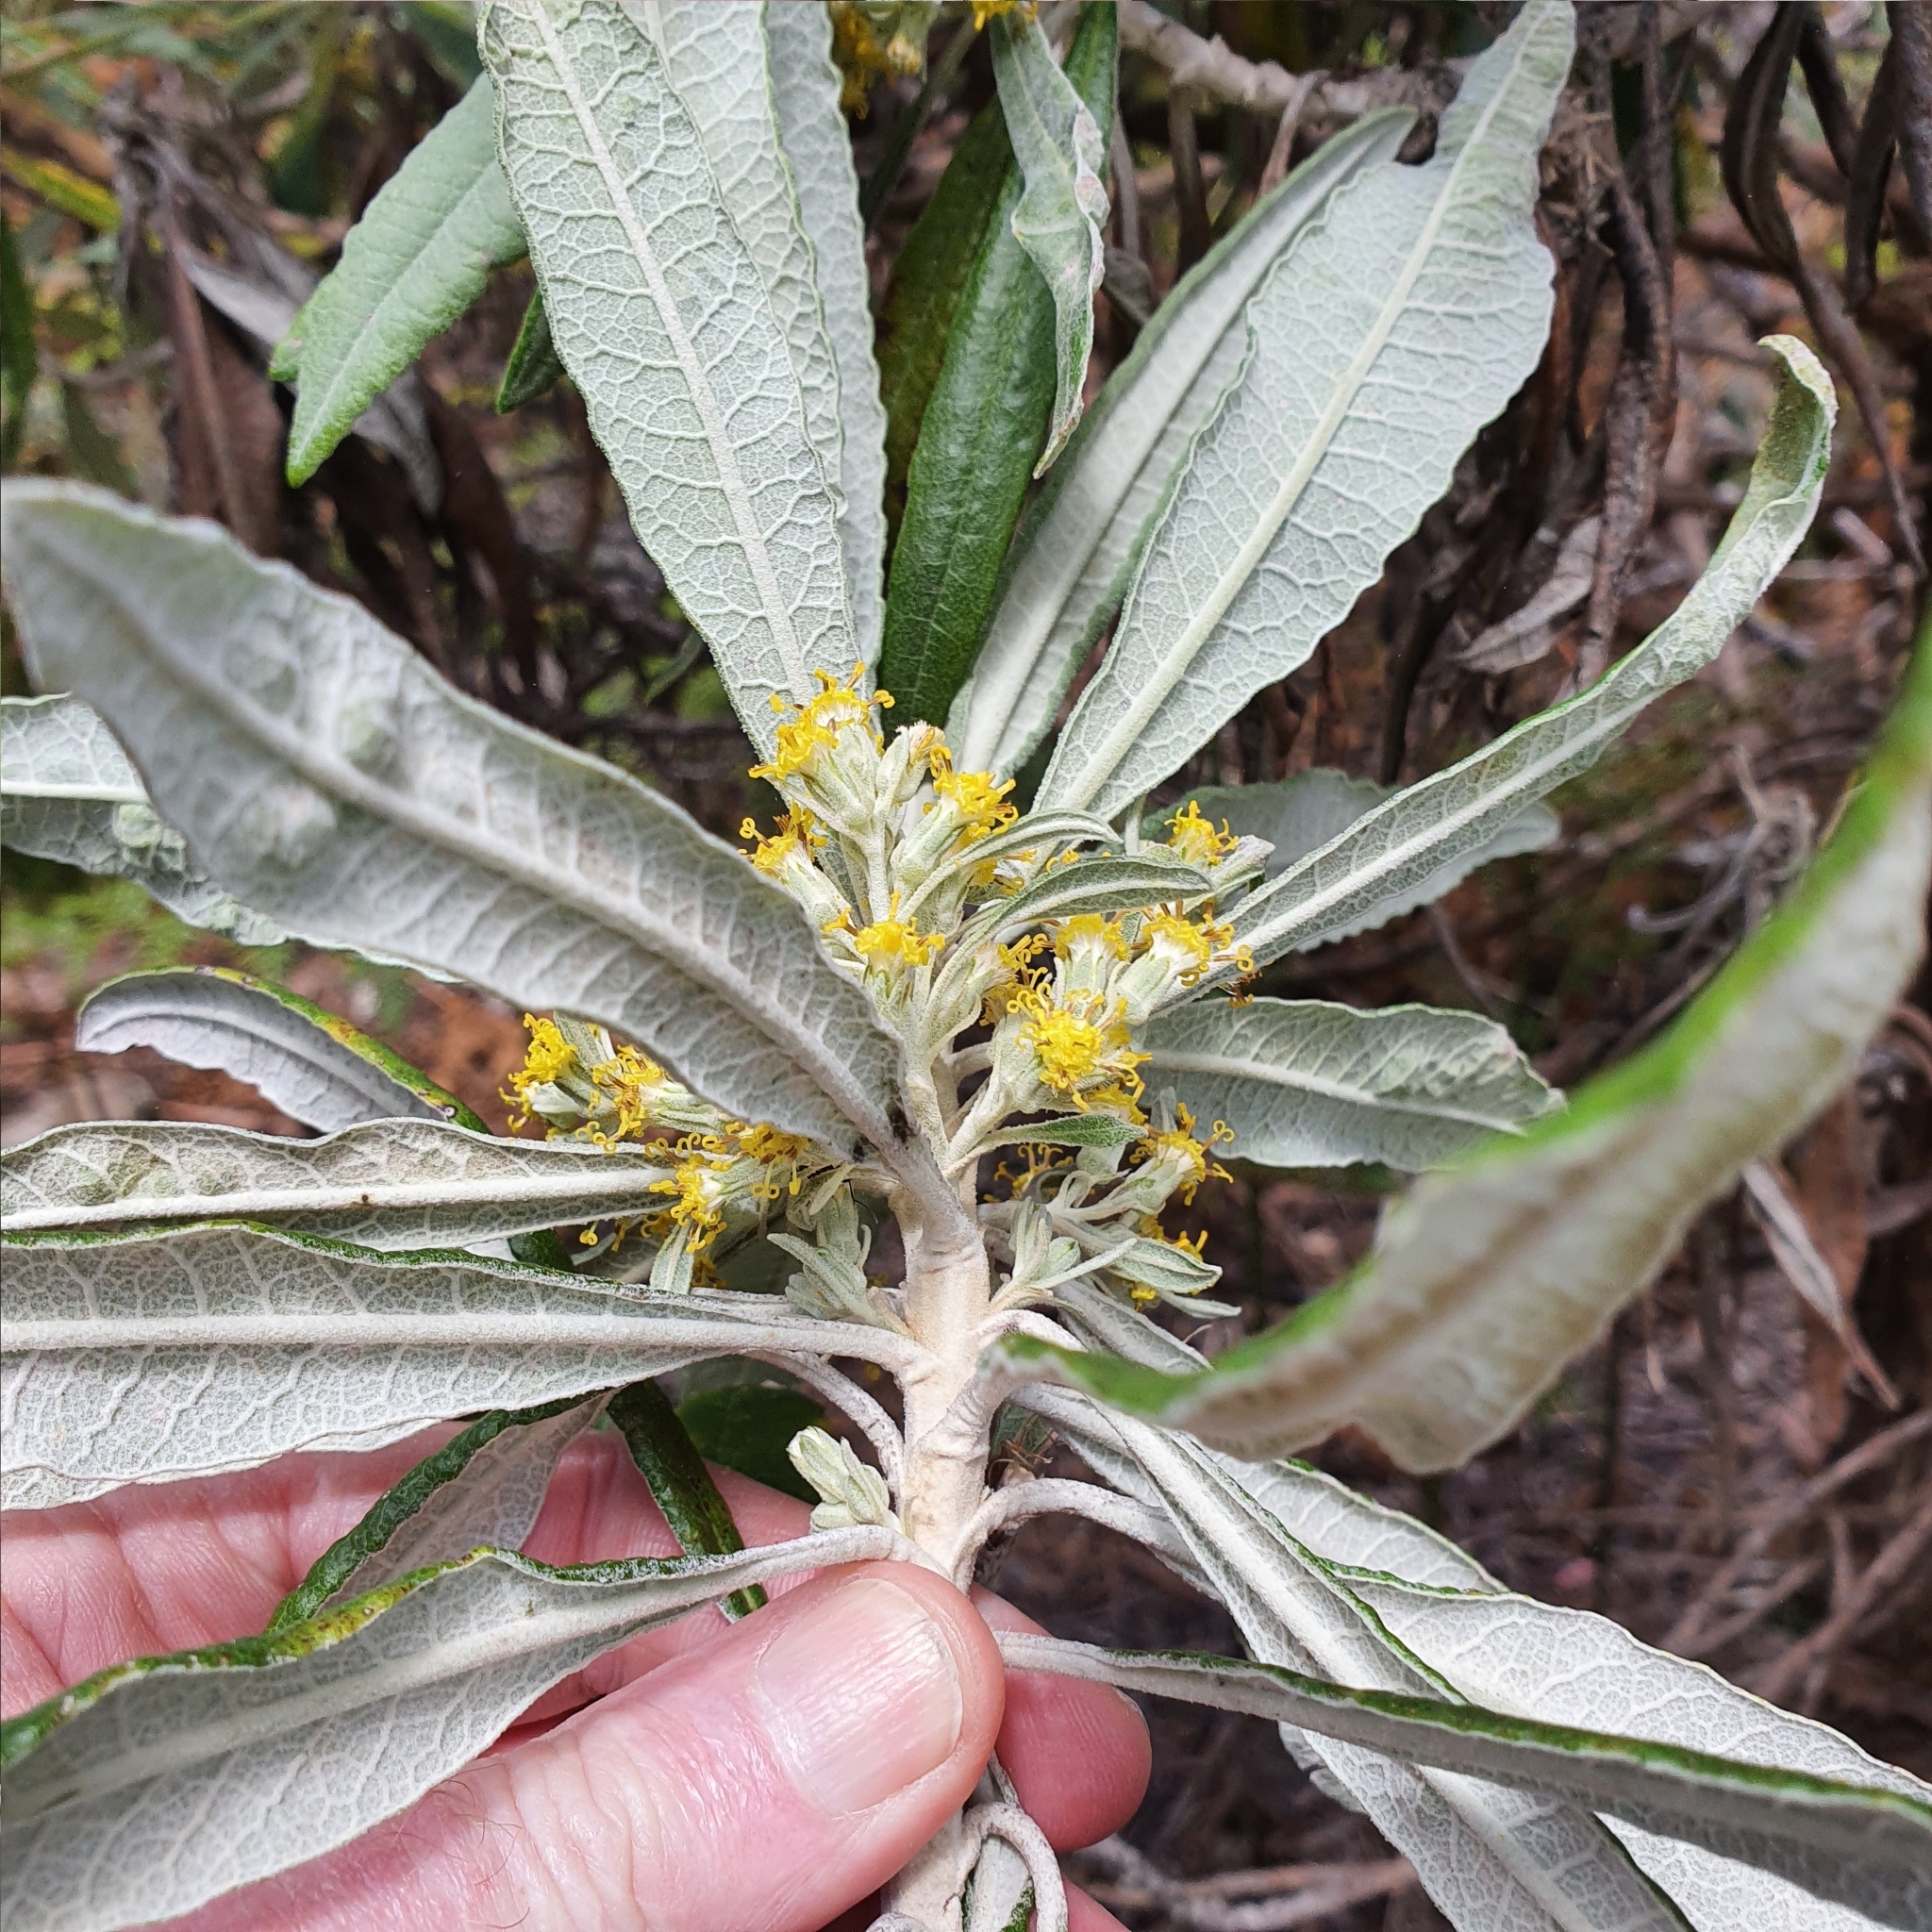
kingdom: Plantae
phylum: Tracheophyta
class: Magnoliopsida
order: Asterales
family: Asteraceae
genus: Bedfordia
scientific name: Bedfordia salicina
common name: Blanketleaf
